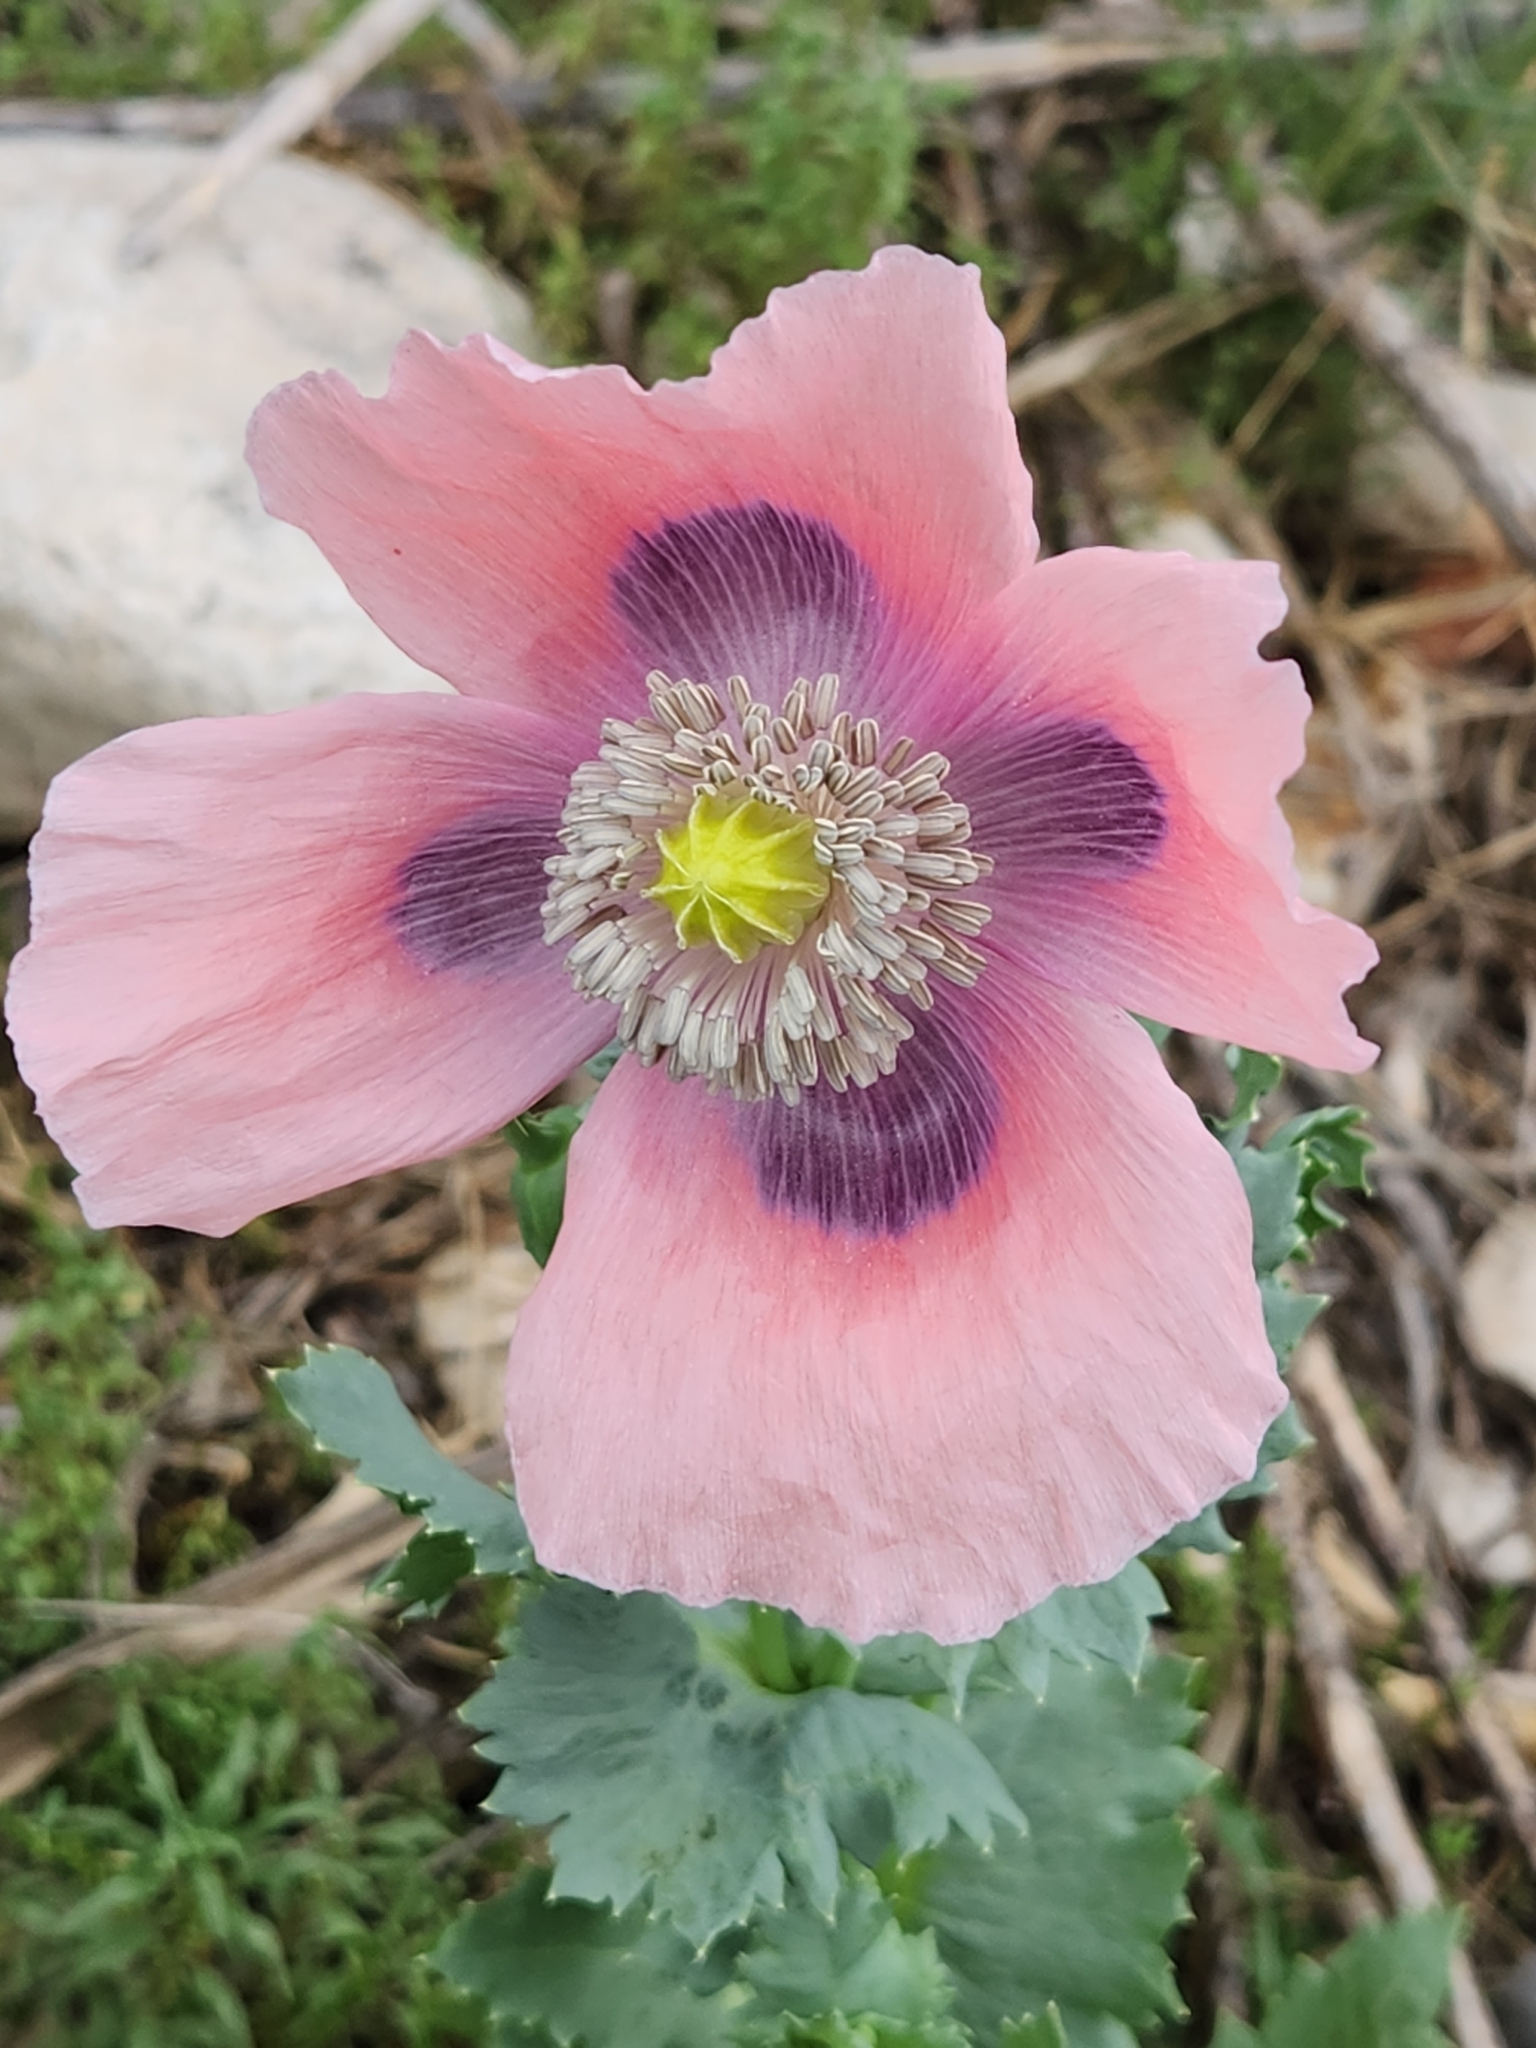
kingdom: Plantae
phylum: Tracheophyta
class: Magnoliopsida
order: Ranunculales
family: Papaveraceae
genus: Papaver
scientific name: Papaver somniferum
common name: Opium poppy
